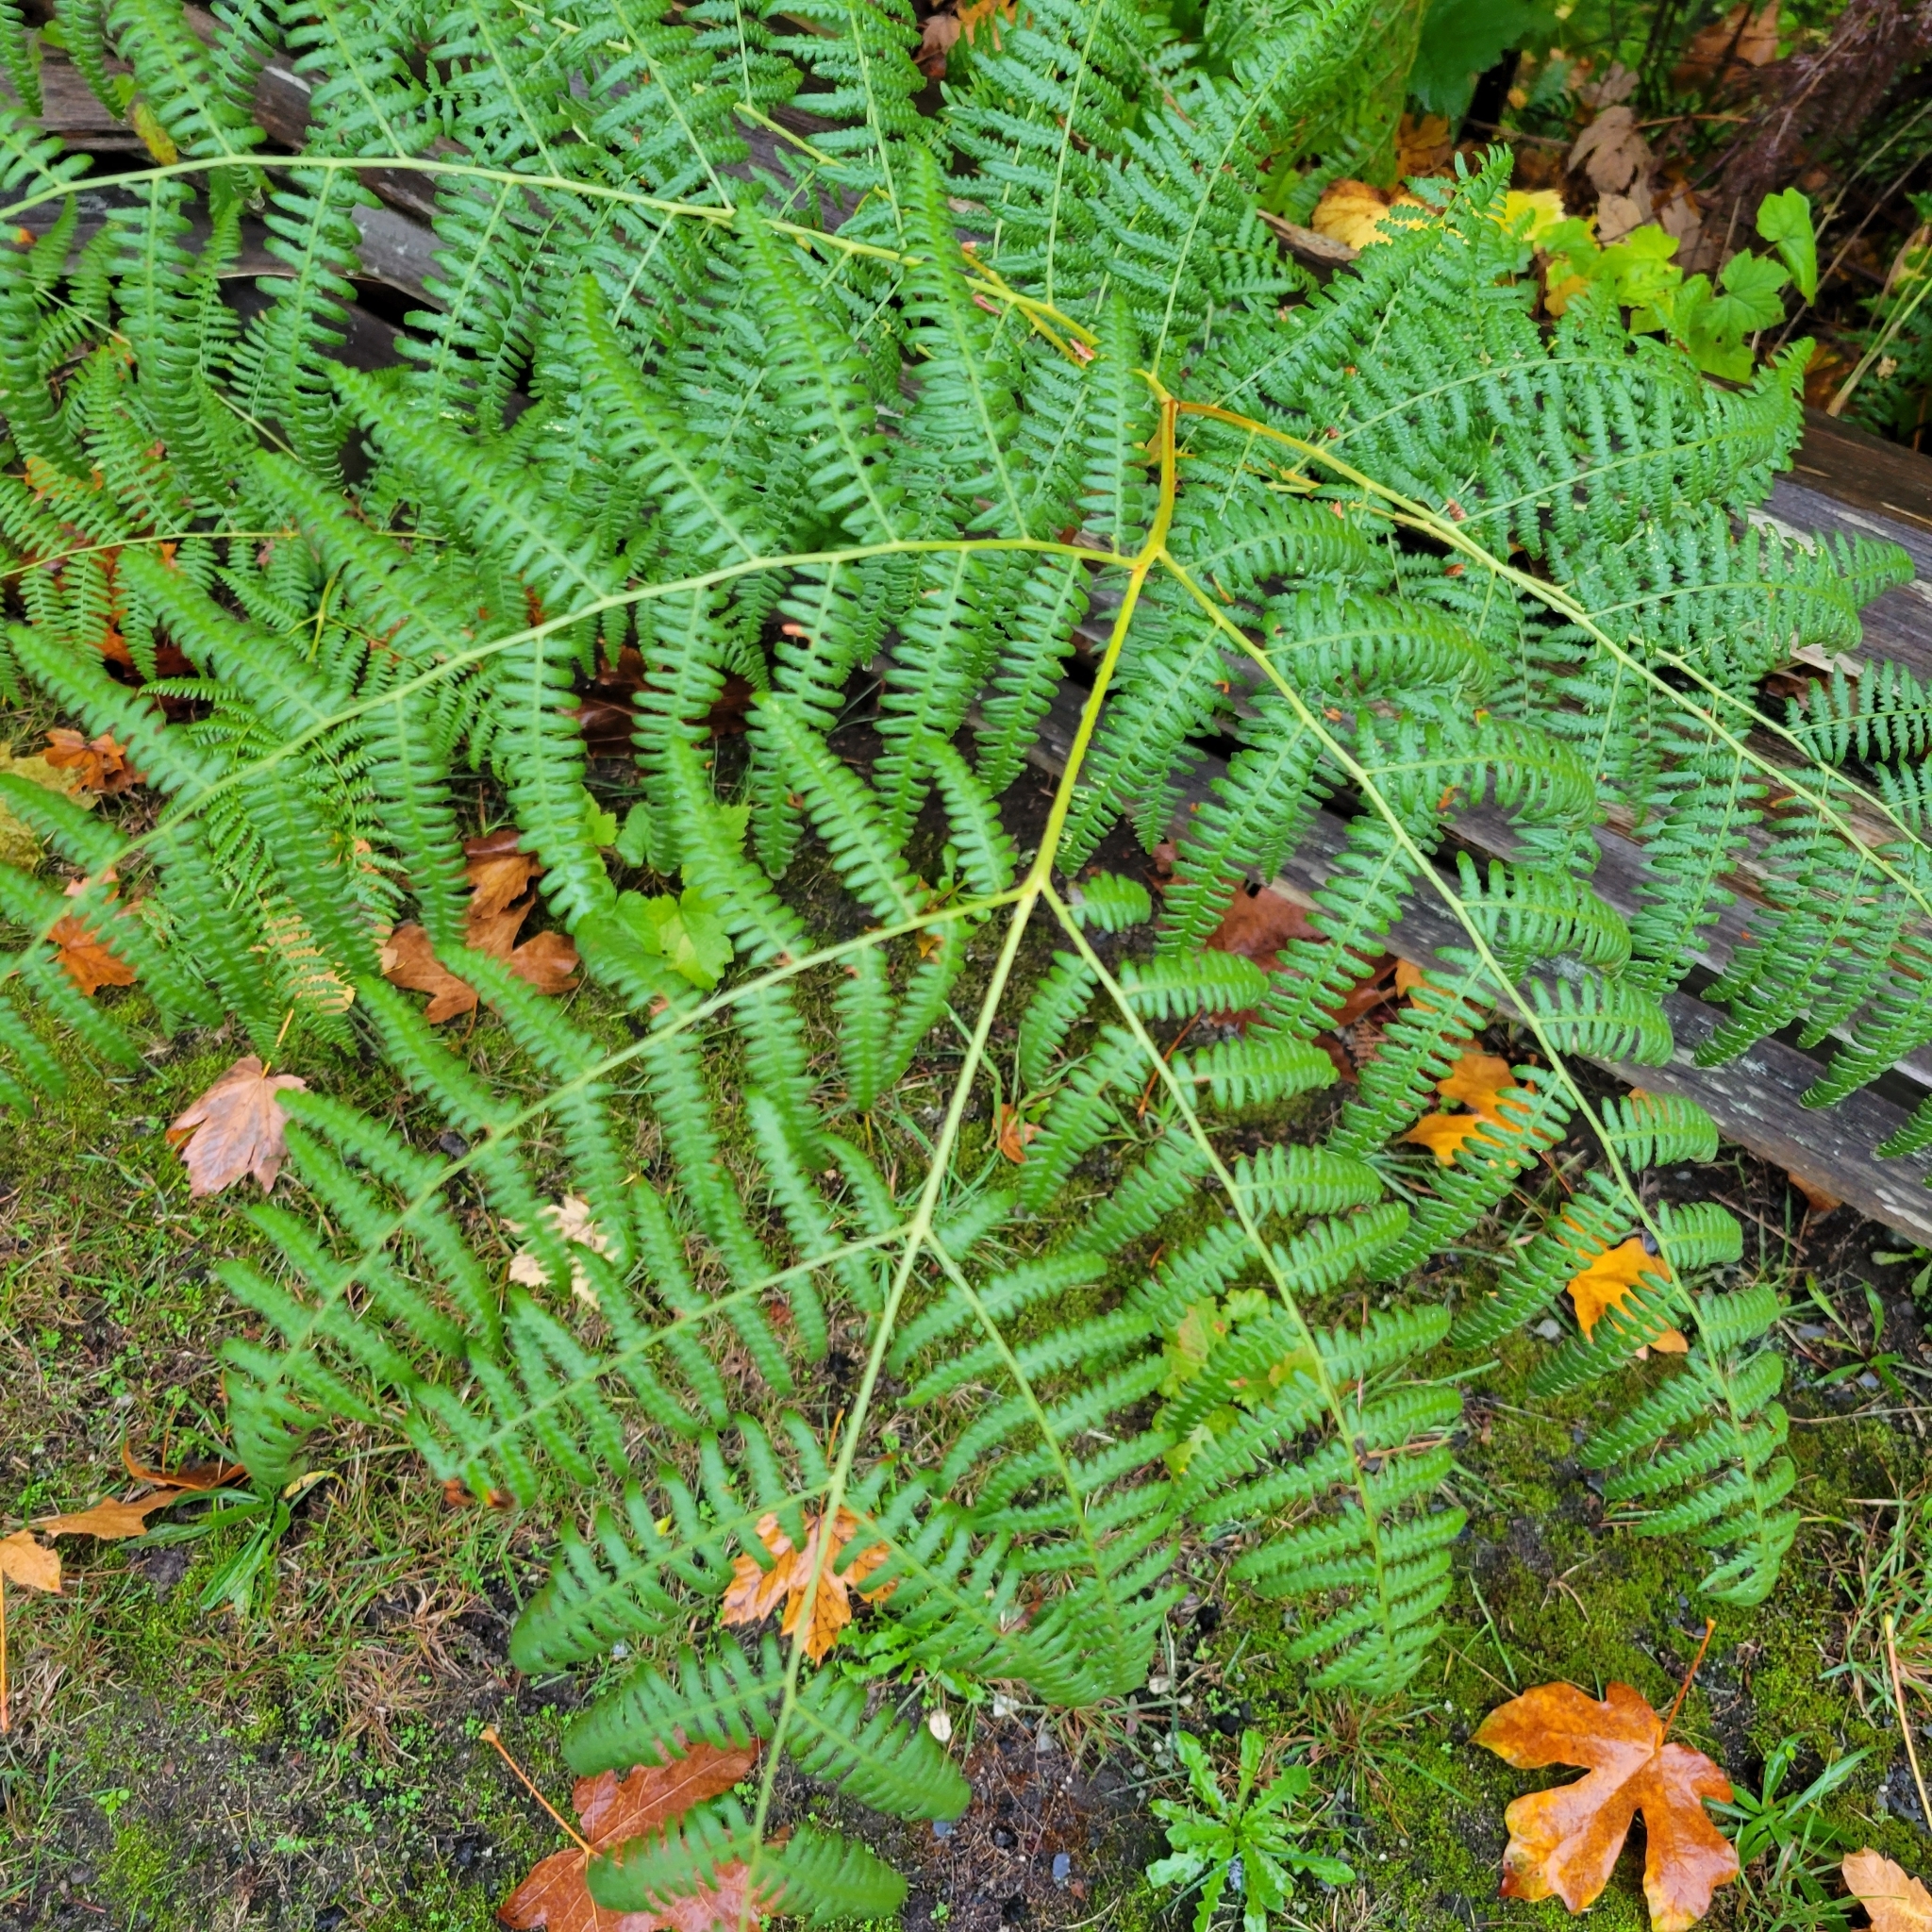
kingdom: Plantae
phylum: Tracheophyta
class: Polypodiopsida
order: Polypodiales
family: Dennstaedtiaceae
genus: Pteridium
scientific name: Pteridium aquilinum
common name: Bracken
